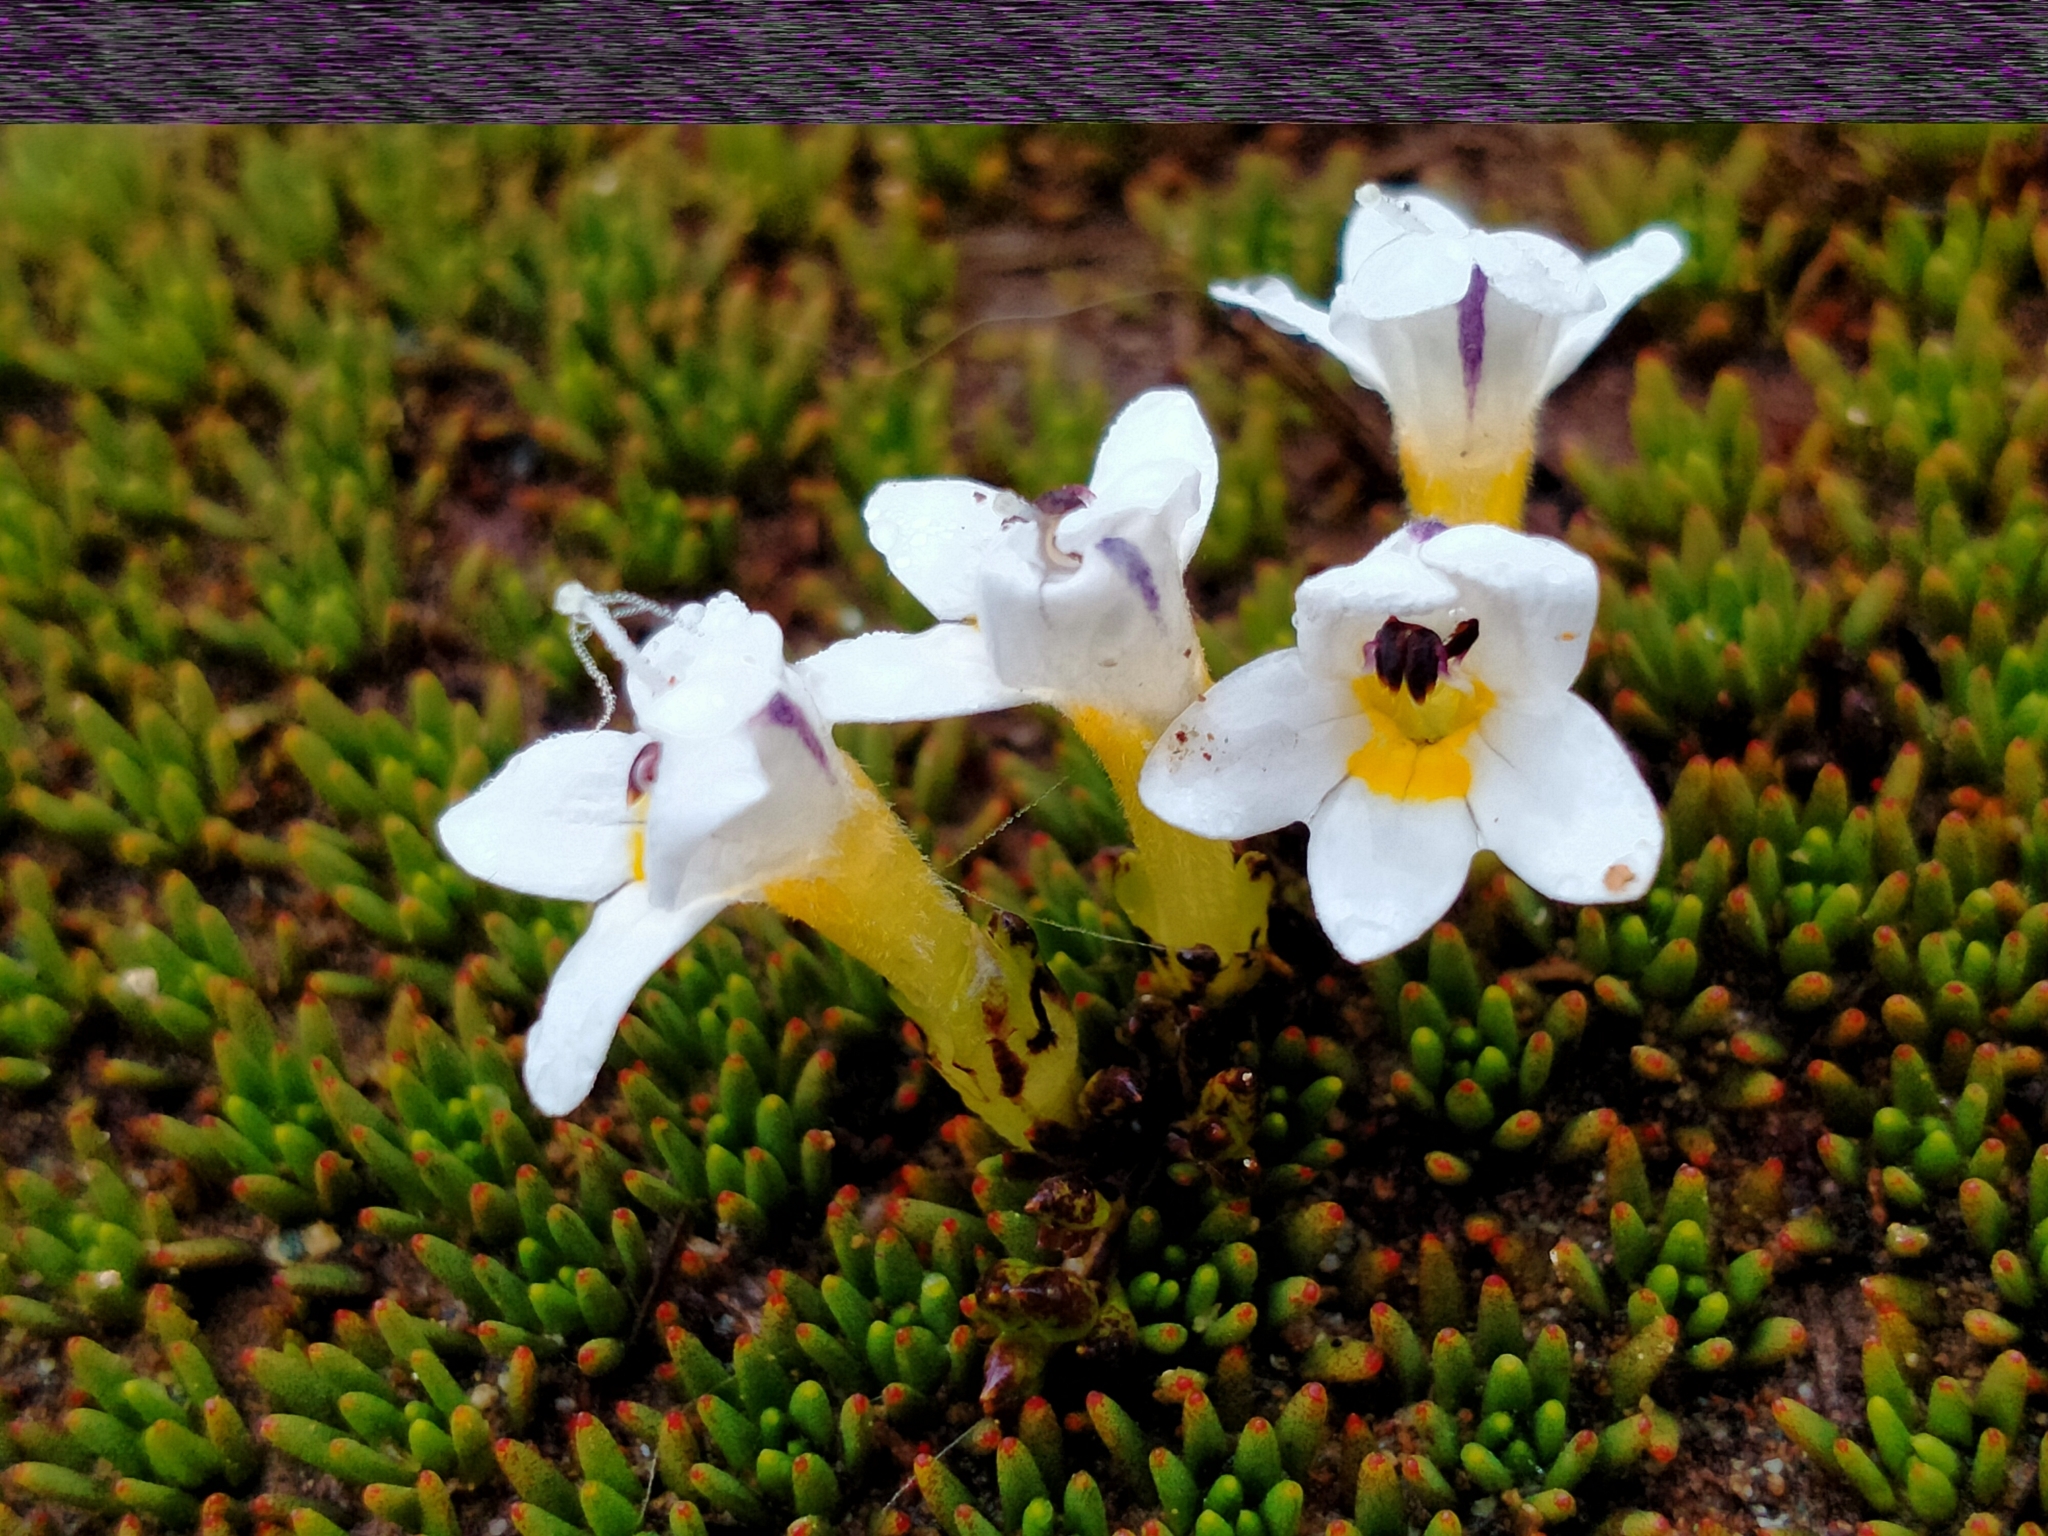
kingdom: Plantae
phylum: Tracheophyta
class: Magnoliopsida
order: Lamiales
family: Orobanchaceae
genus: Euphrasia
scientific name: Euphrasia integrifolia
